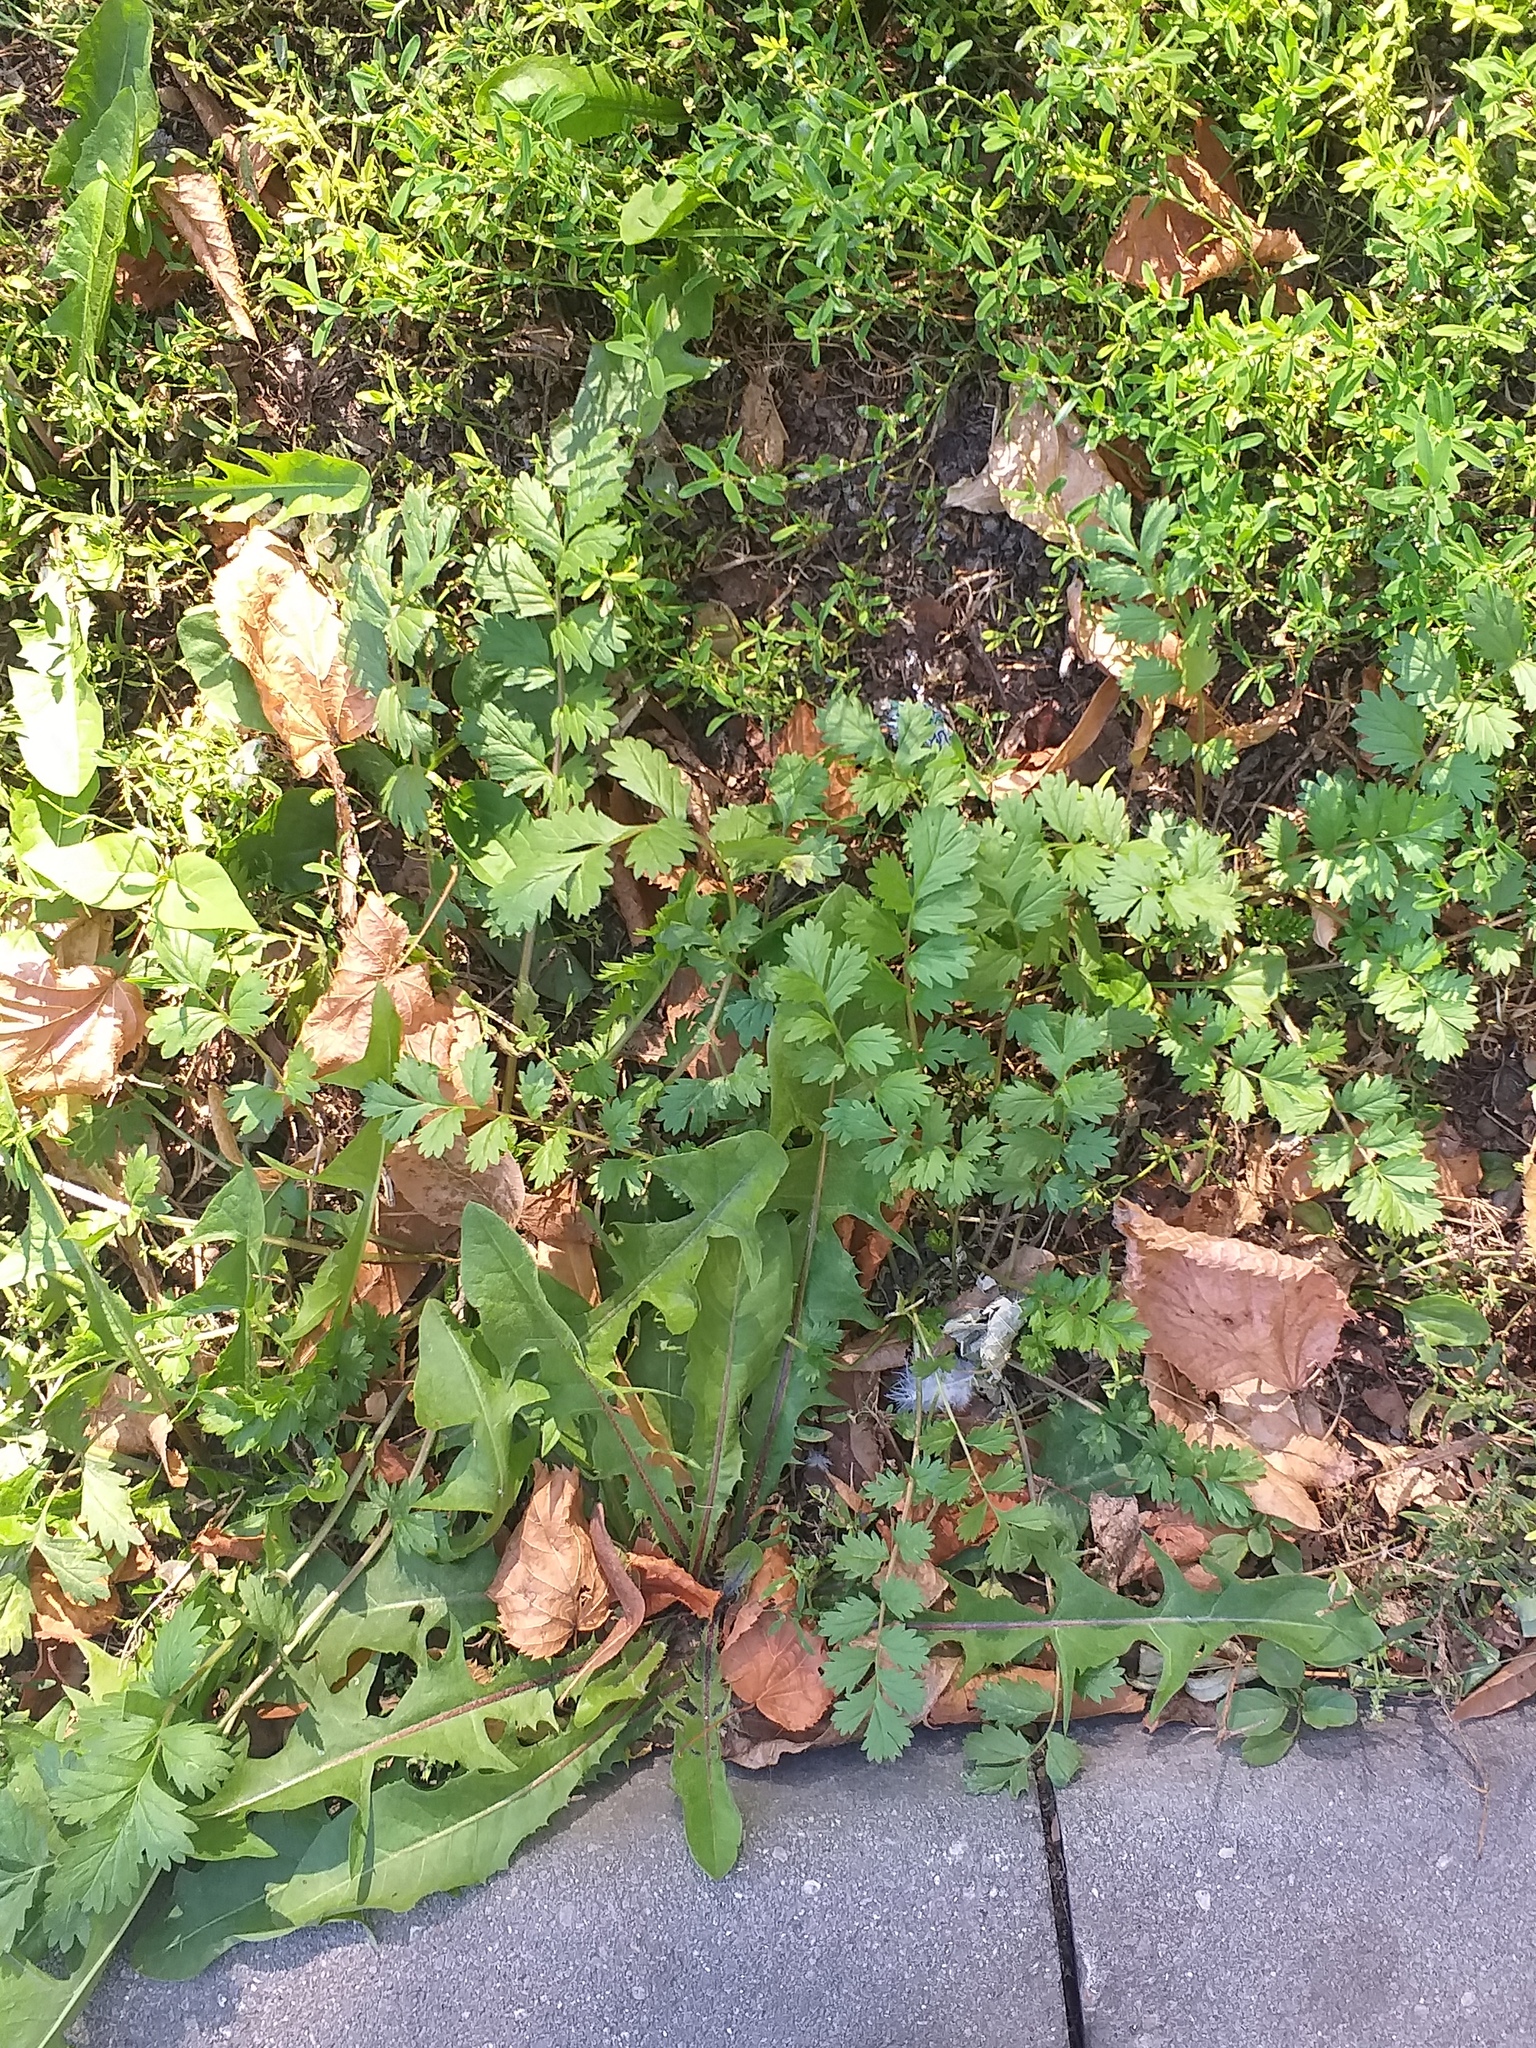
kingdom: Plantae
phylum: Tracheophyta
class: Magnoliopsida
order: Rosales
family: Rosaceae
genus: Potentilla
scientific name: Potentilla supina
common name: Prostrate cinquefoil
